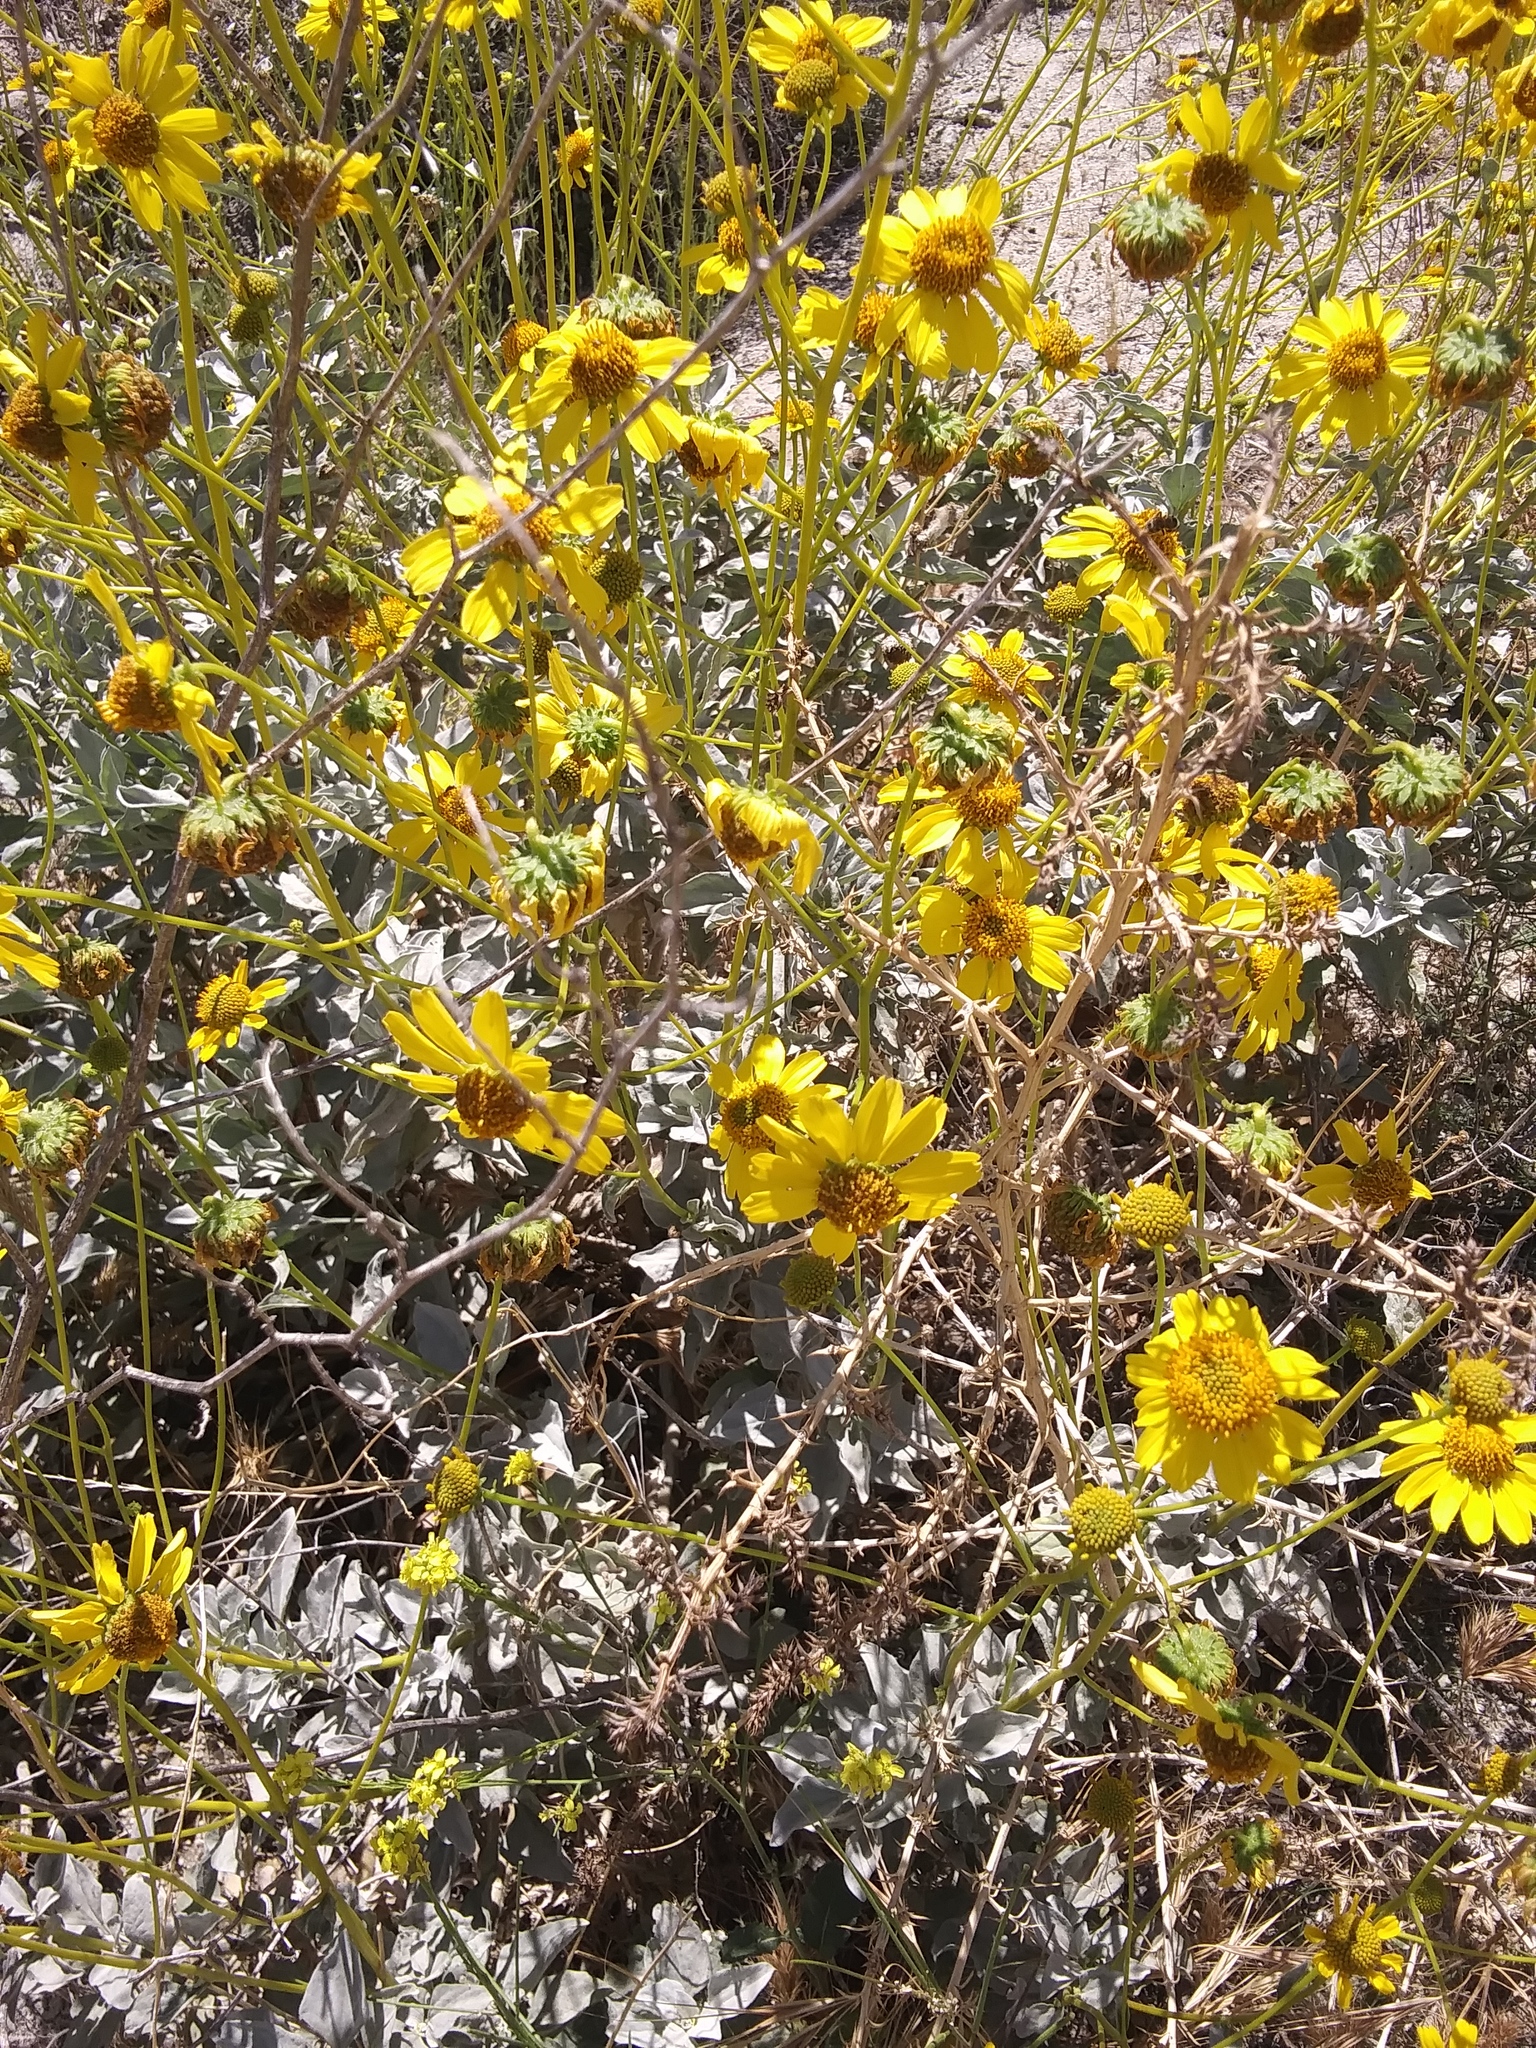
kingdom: Plantae
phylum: Tracheophyta
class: Magnoliopsida
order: Asterales
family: Asteraceae
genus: Encelia
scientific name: Encelia farinosa
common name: Brittlebush
